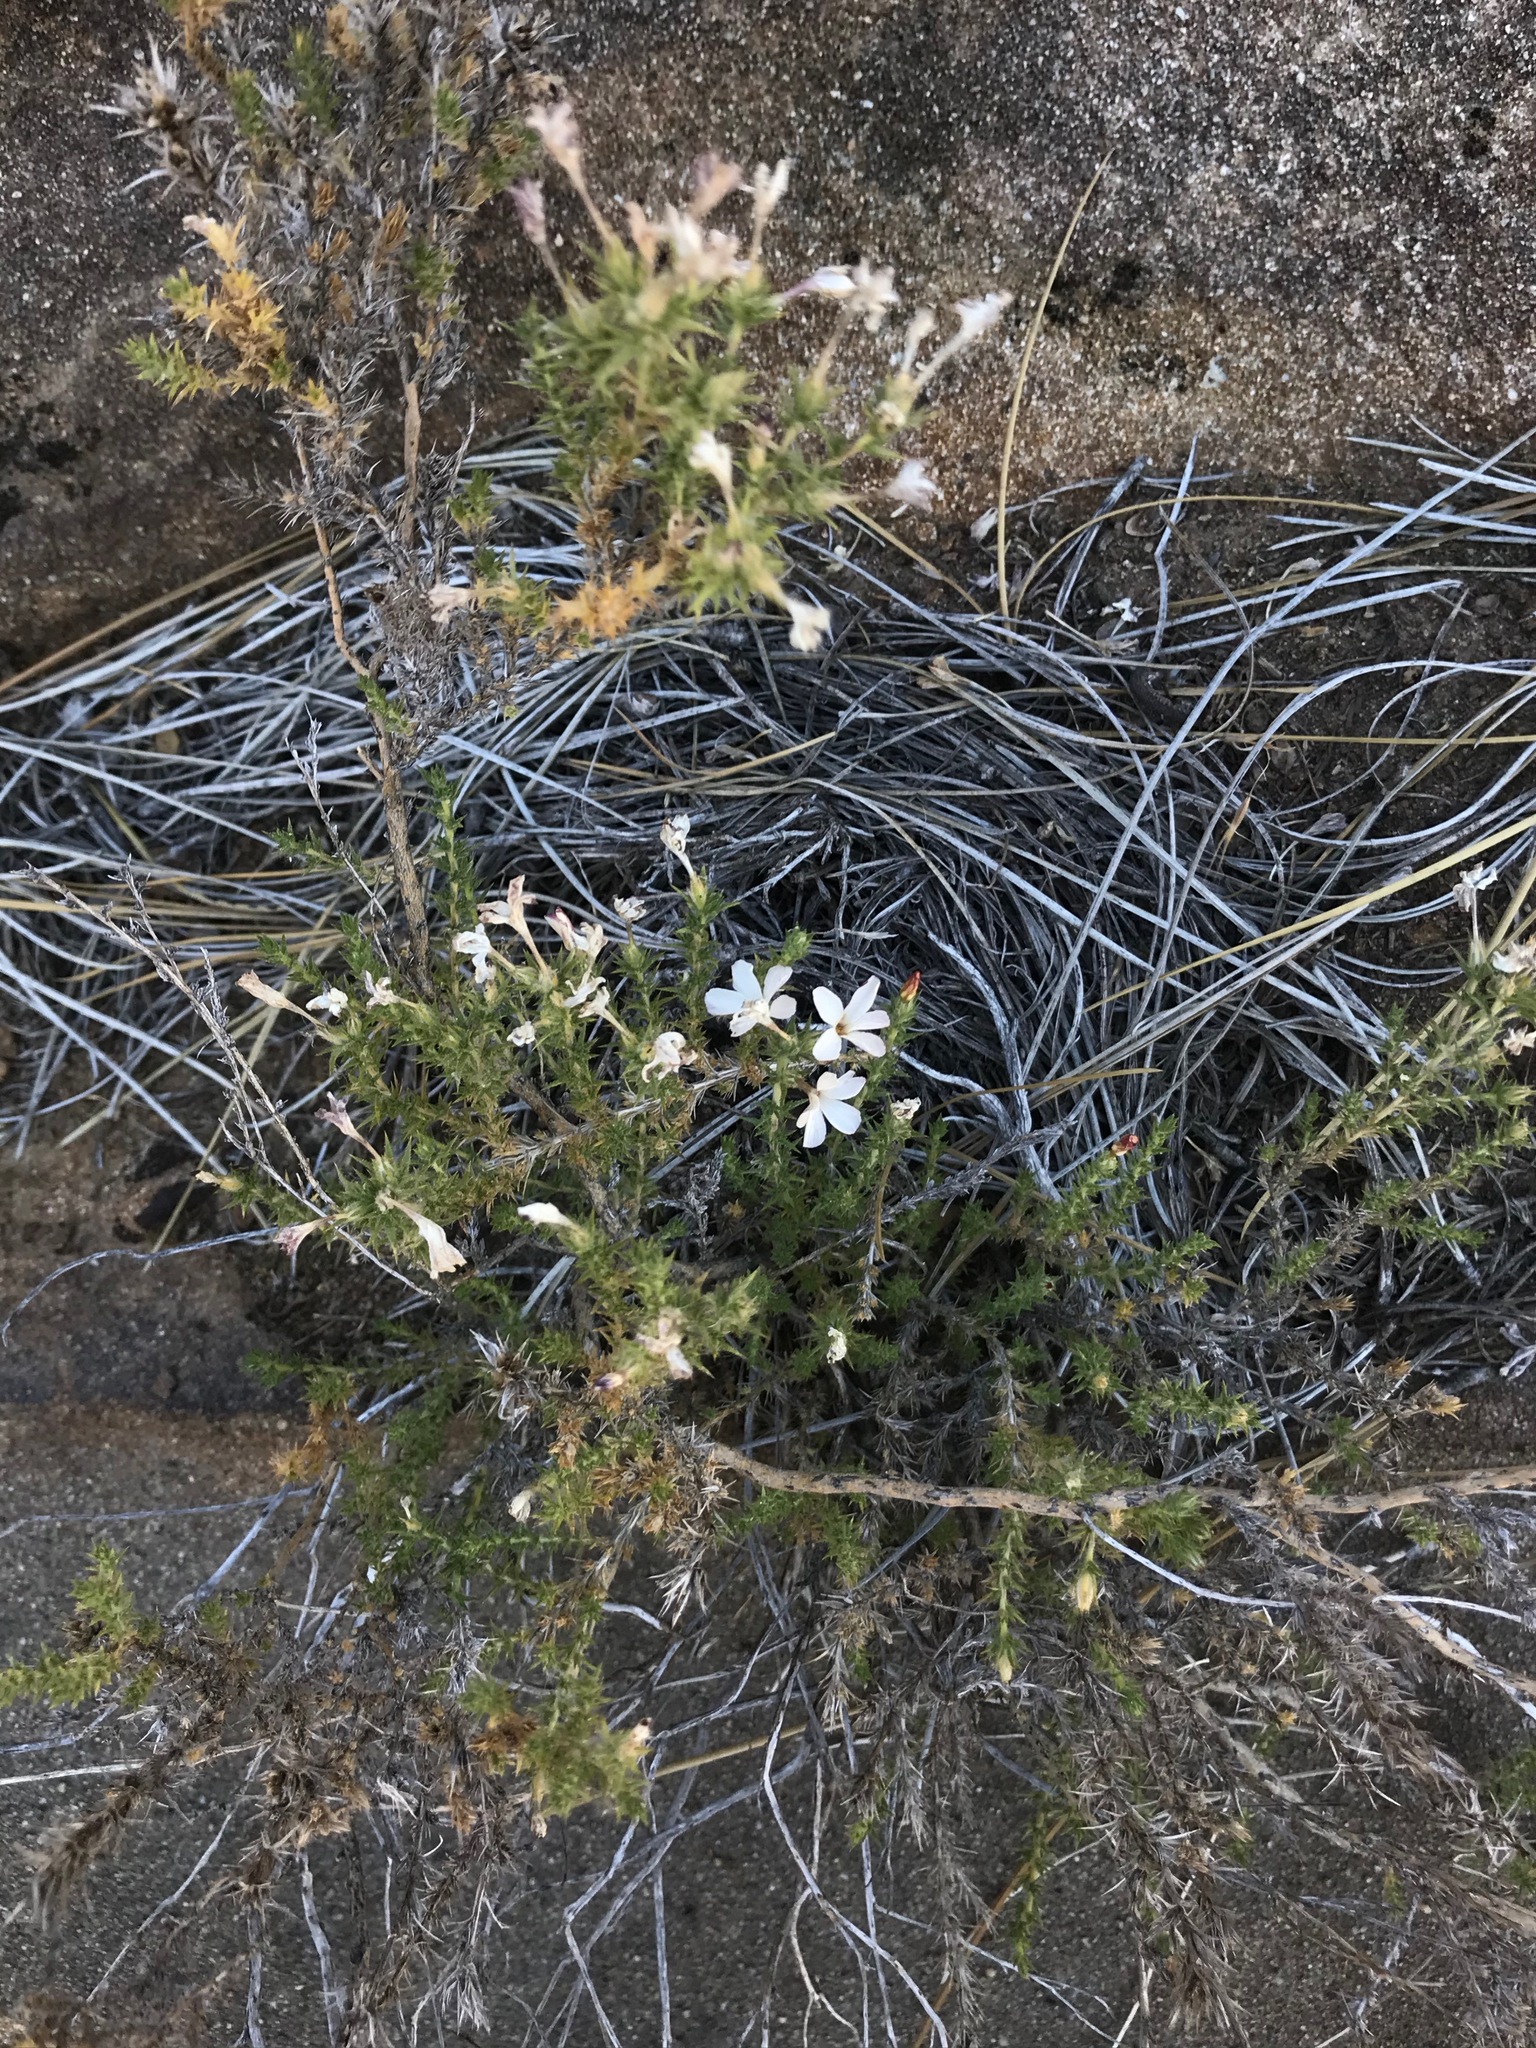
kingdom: Plantae
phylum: Tracheophyta
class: Magnoliopsida
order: Ericales
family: Polemoniaceae
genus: Linanthus
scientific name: Linanthus pungens
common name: Granite prickly phlox
